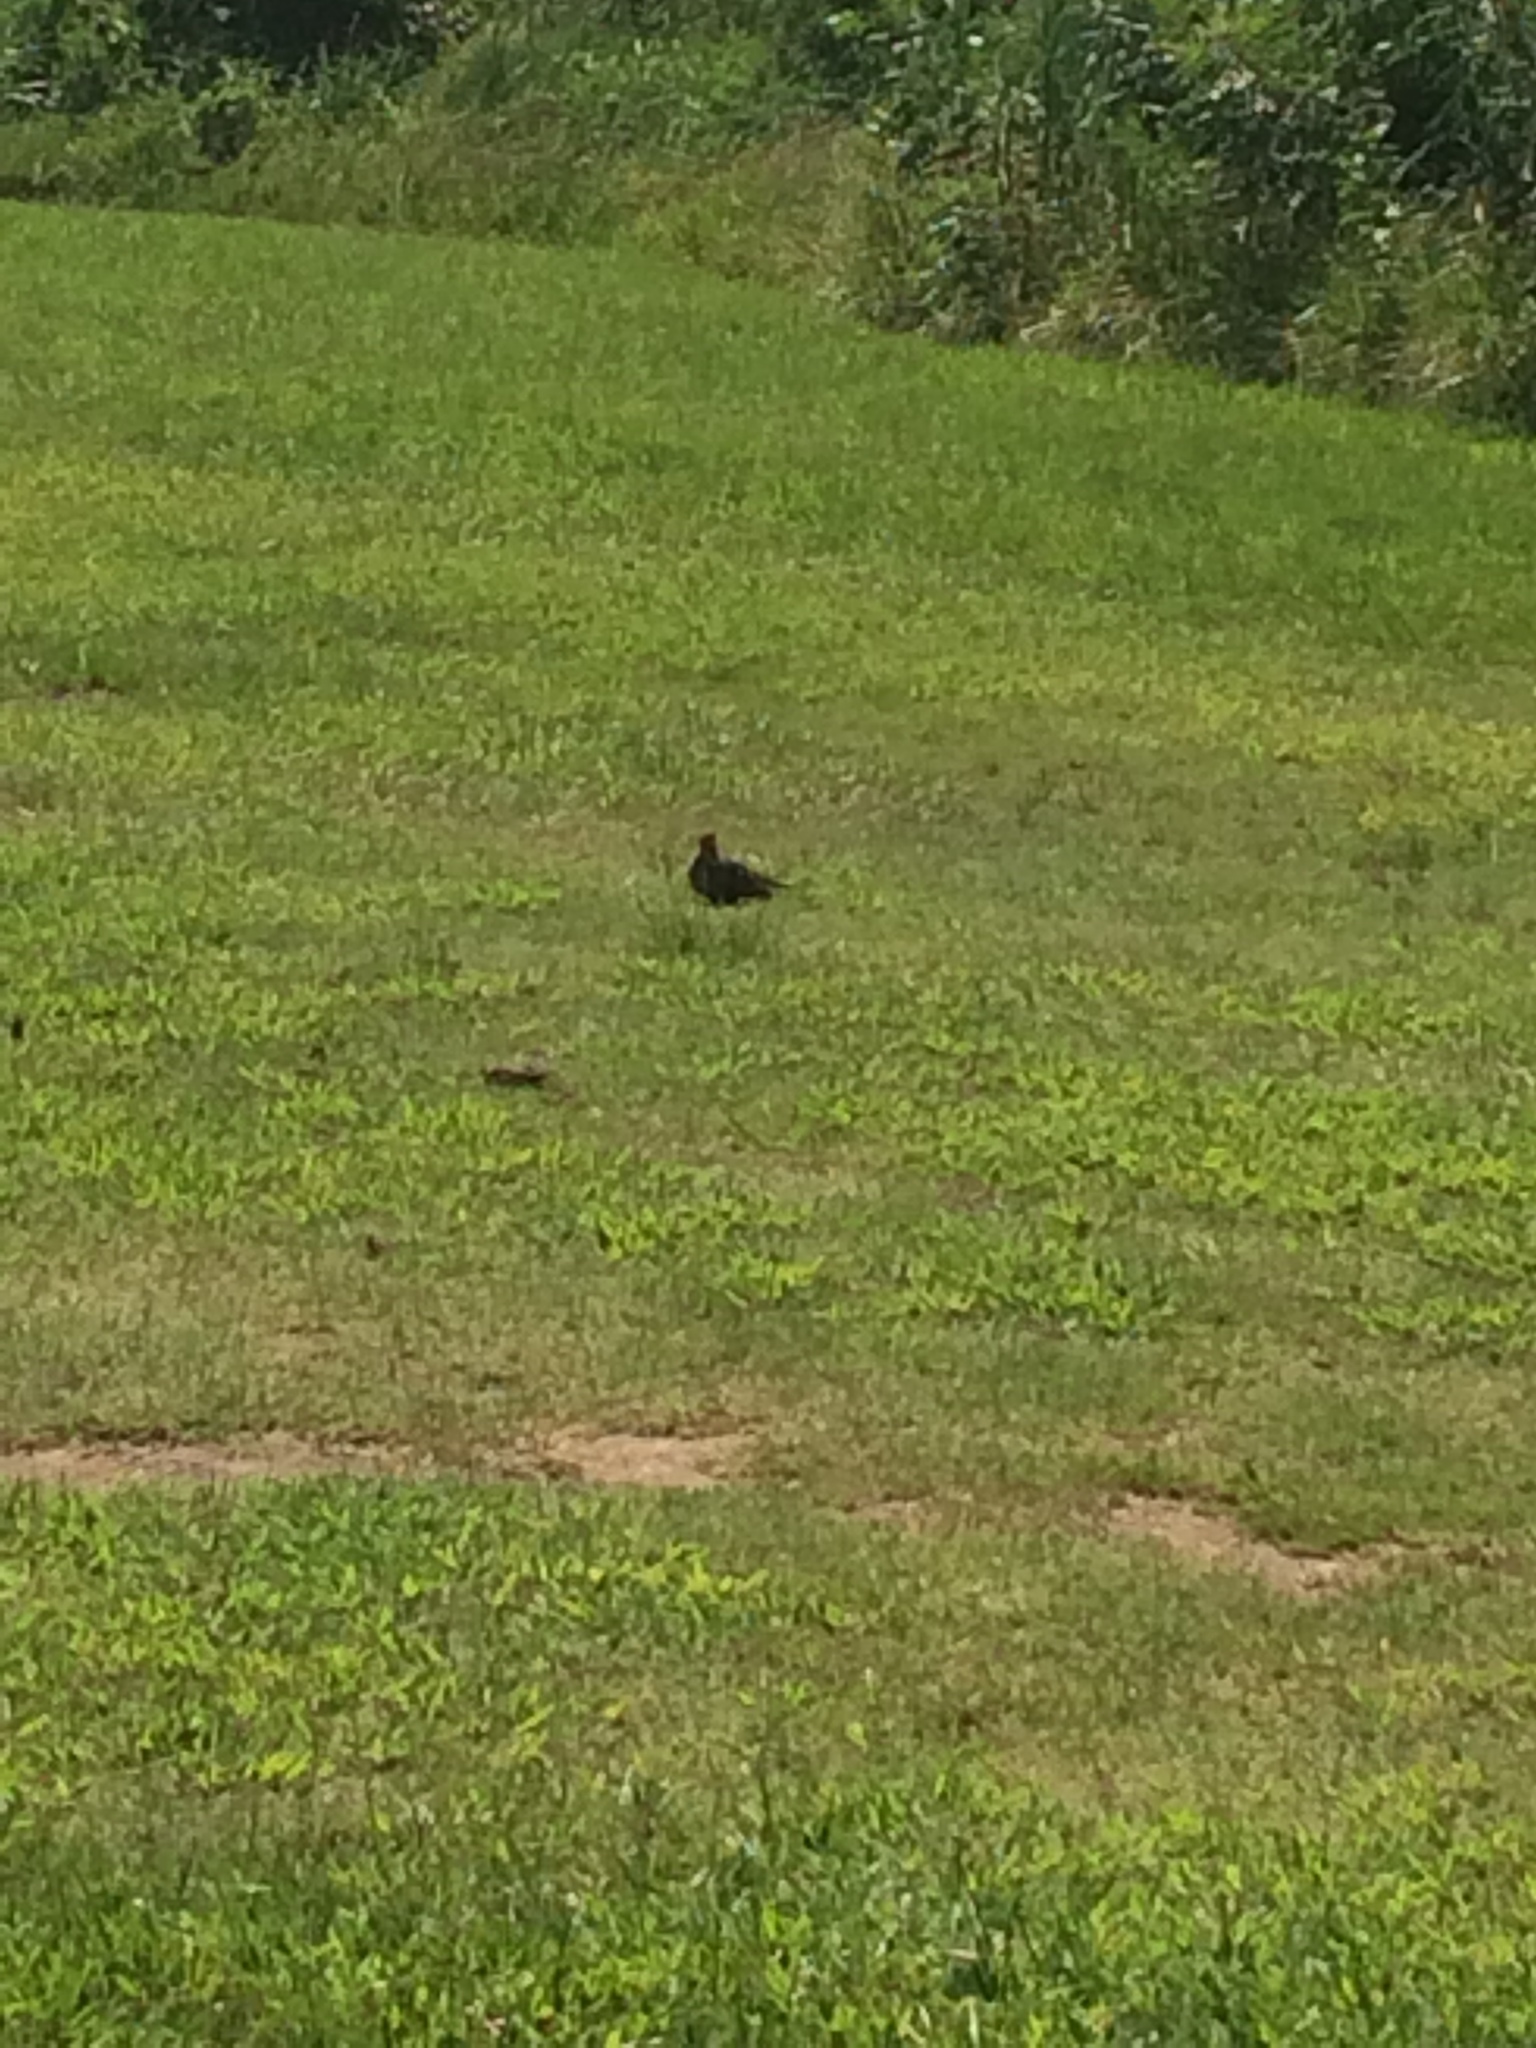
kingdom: Animalia
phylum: Chordata
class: Aves
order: Columbiformes
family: Columbidae
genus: Zenaida
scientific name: Zenaida macroura
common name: Mourning dove
